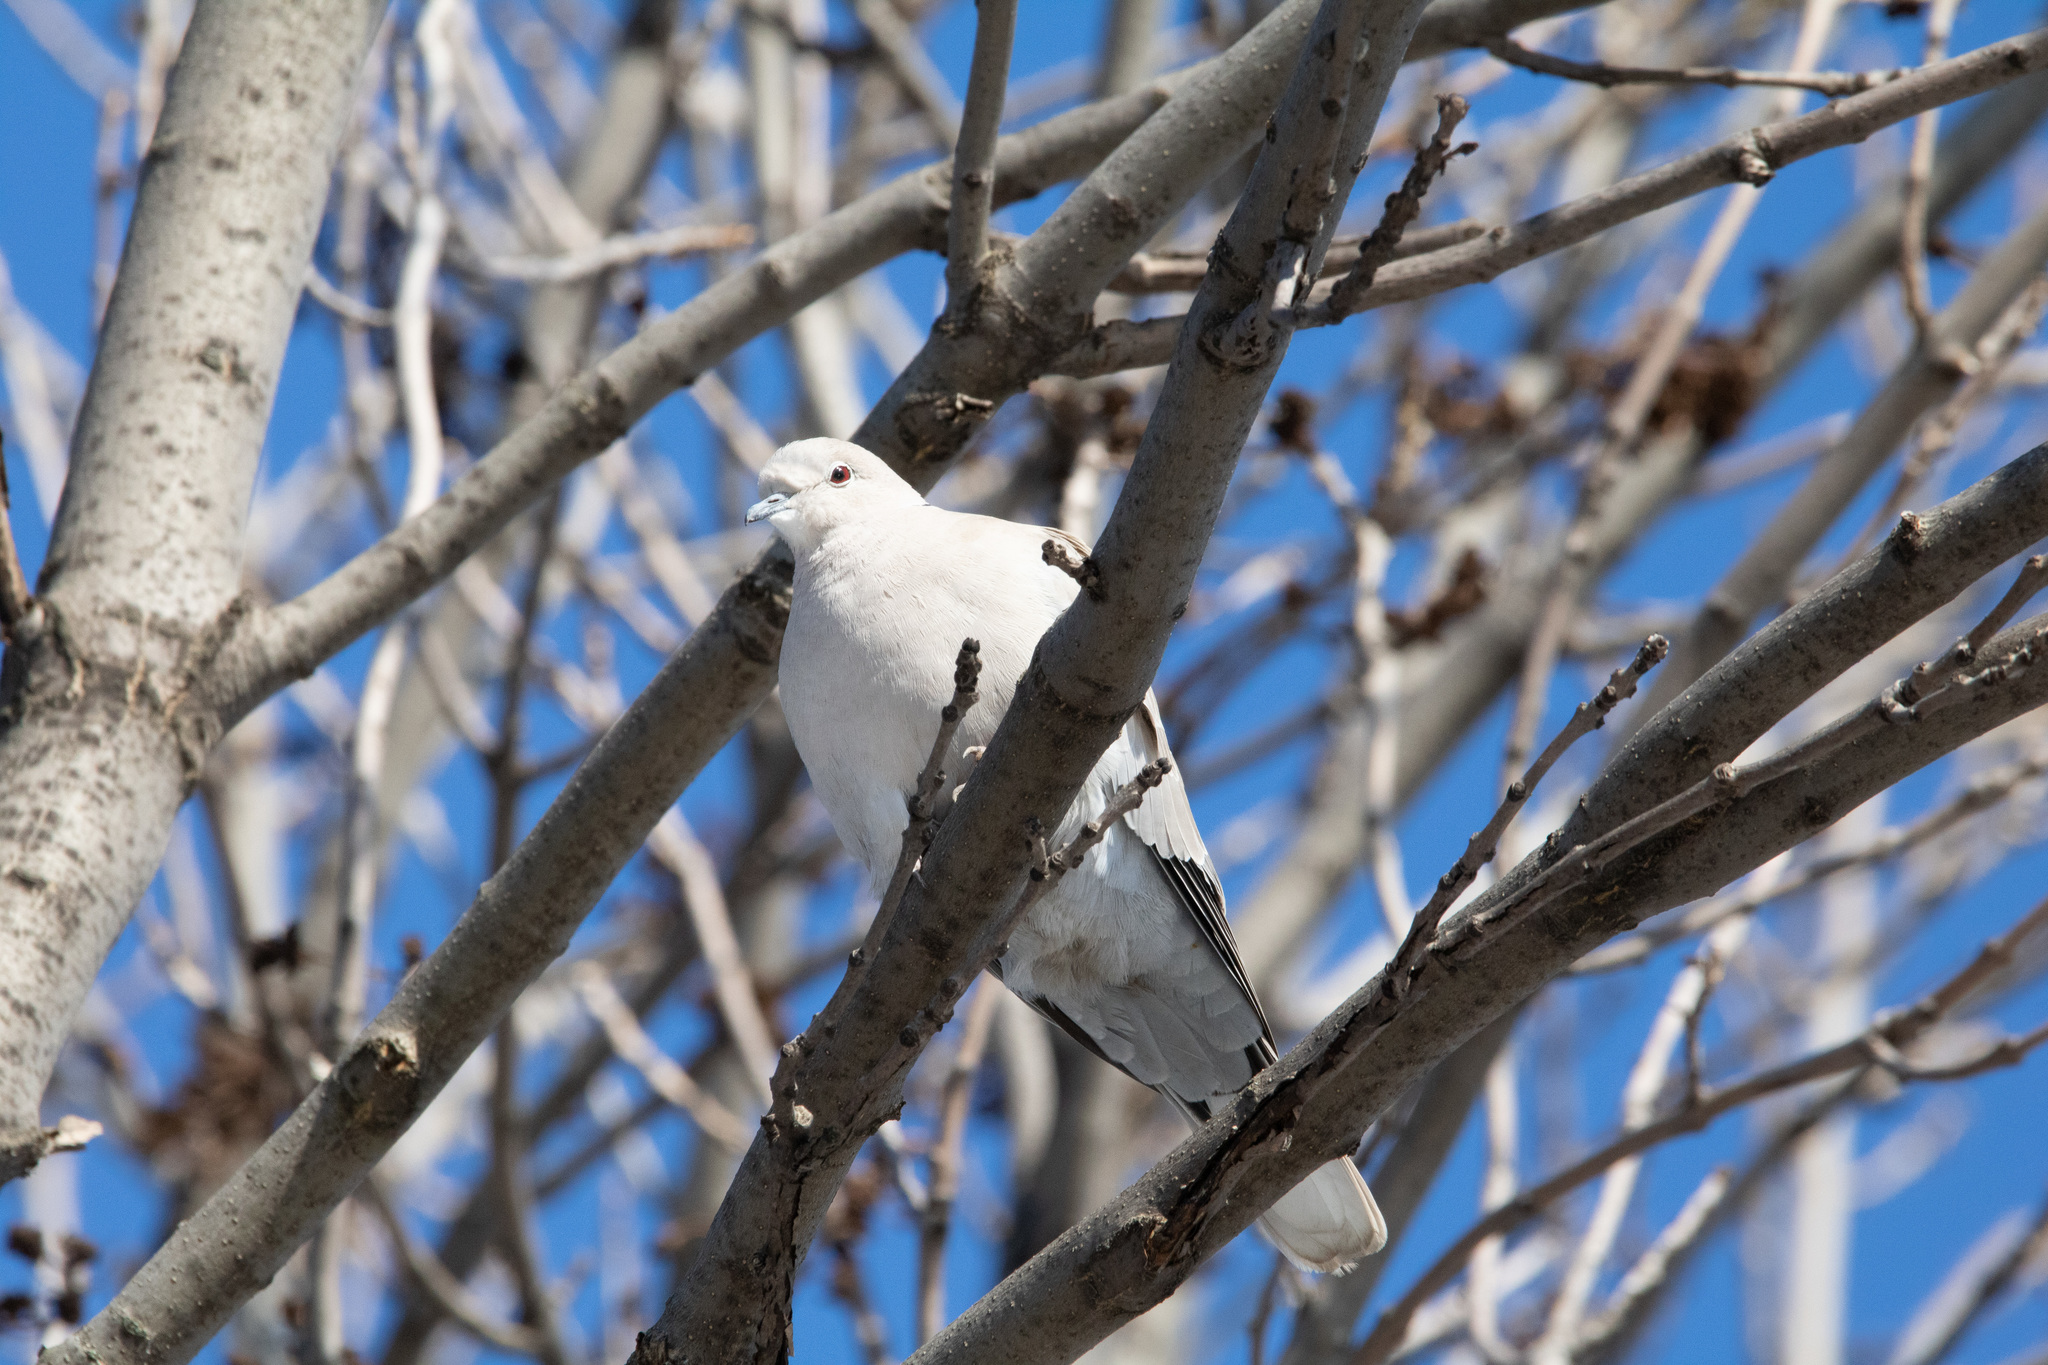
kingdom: Animalia
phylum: Chordata
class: Aves
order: Columbiformes
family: Columbidae
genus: Streptopelia
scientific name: Streptopelia decaocto
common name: Eurasian collared dove
